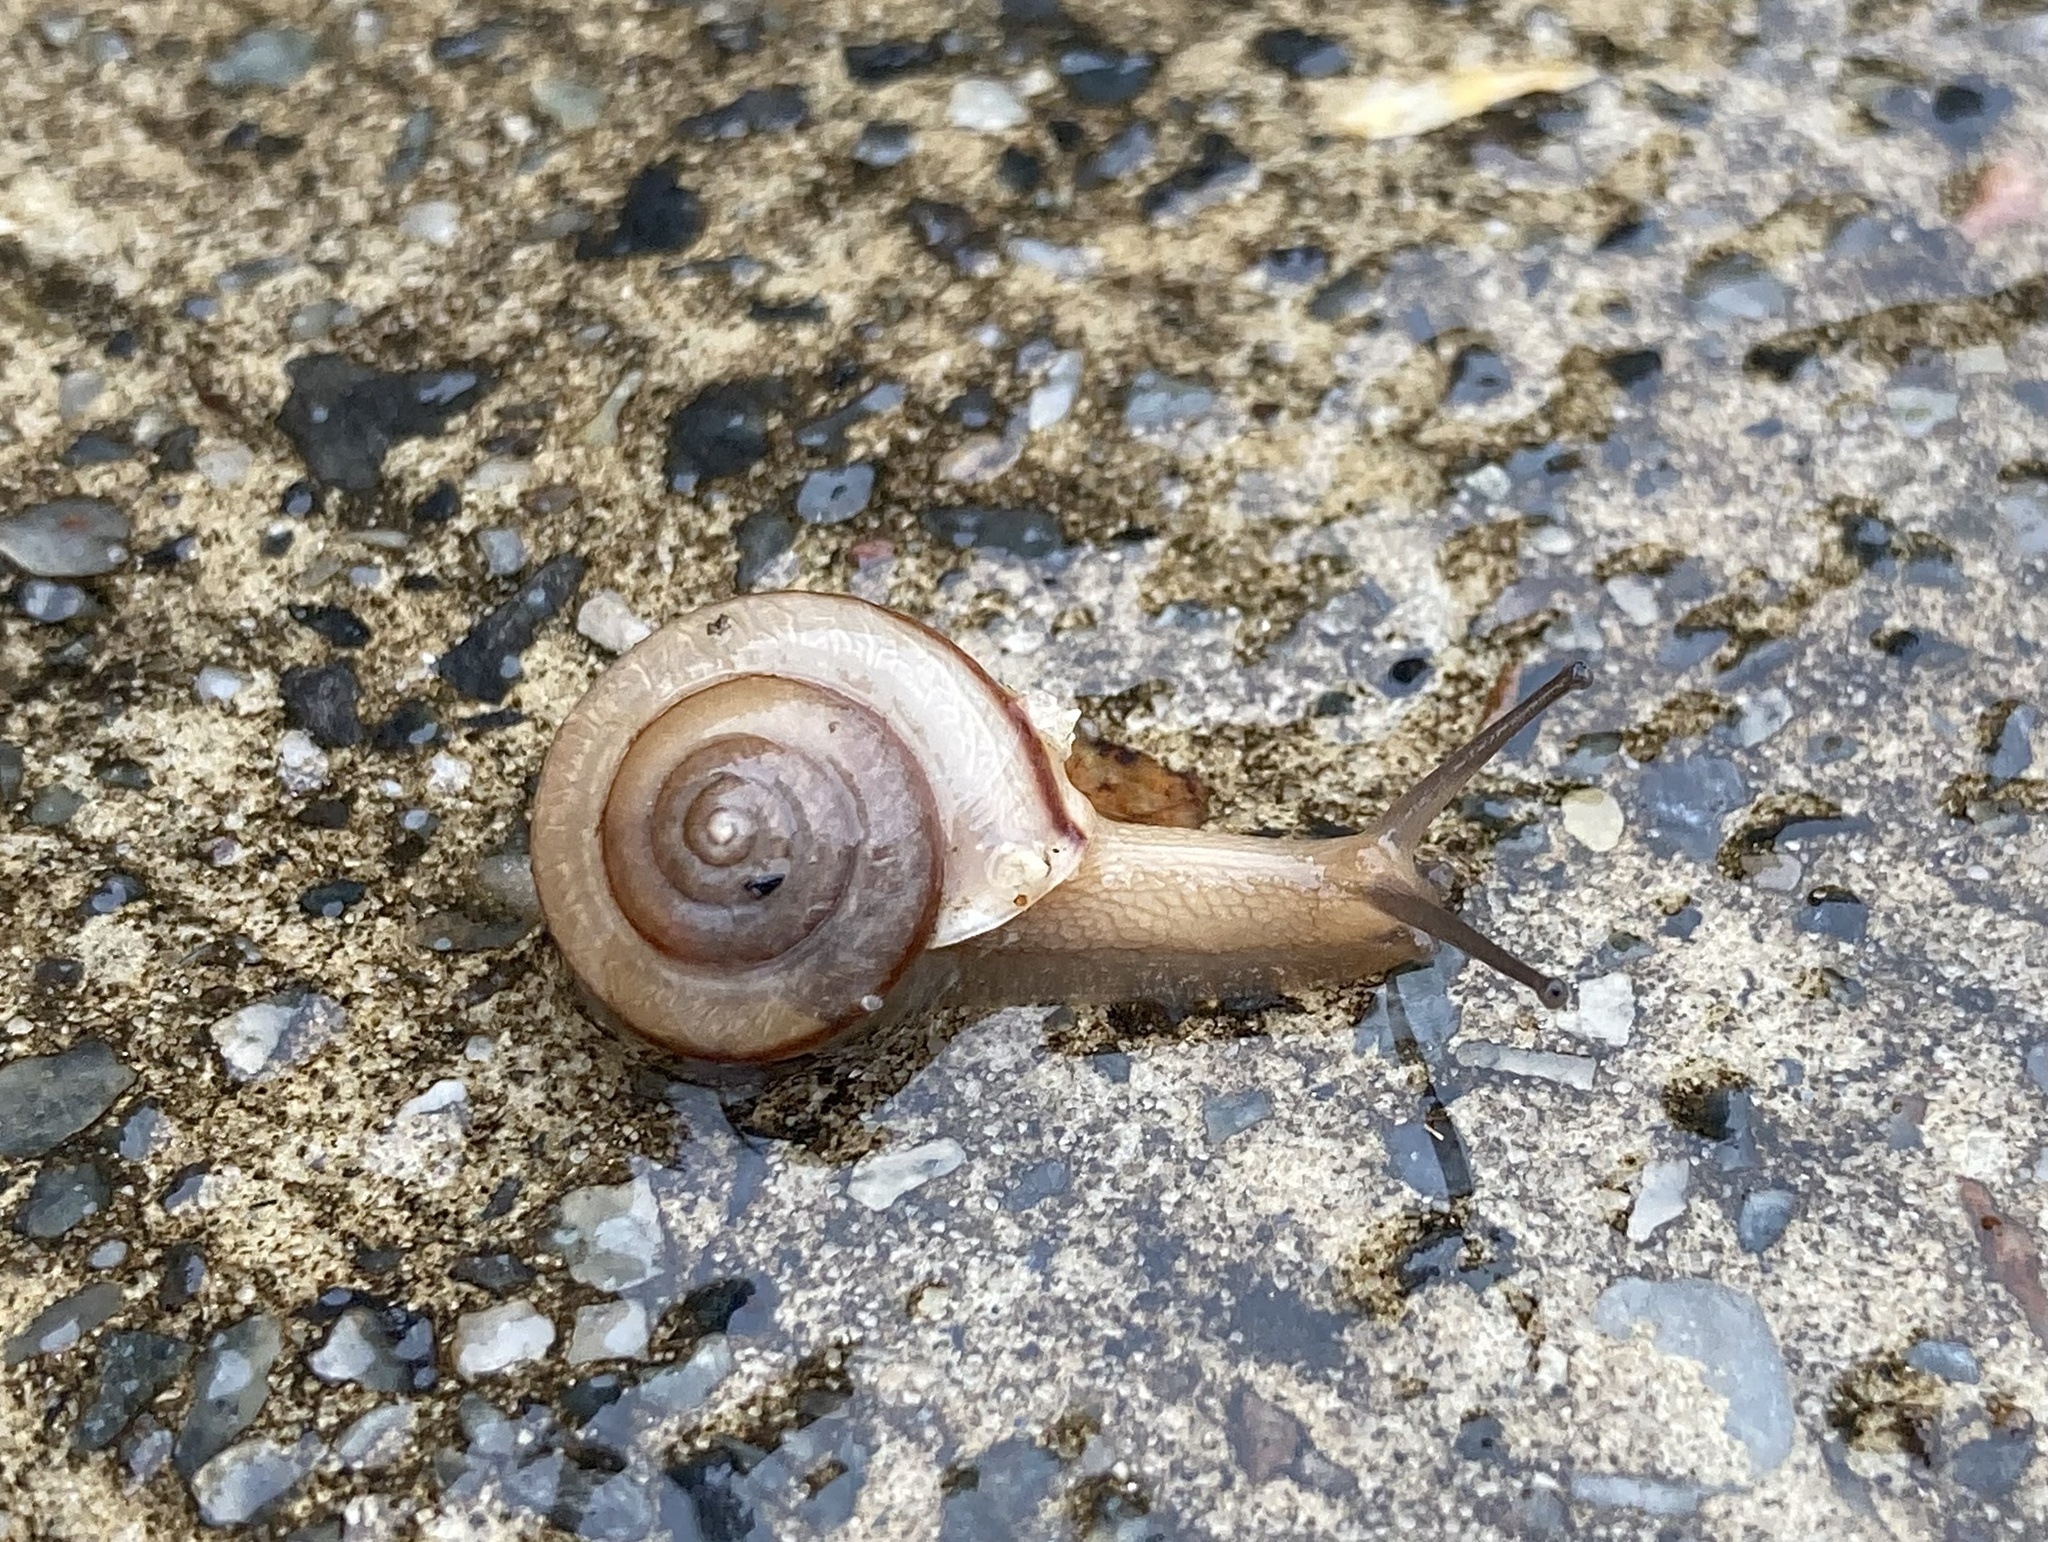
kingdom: Animalia
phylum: Mollusca
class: Gastropoda
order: Stylommatophora
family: Camaenidae
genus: Bradybaena
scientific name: Bradybaena similaris
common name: Asian trampsnail
